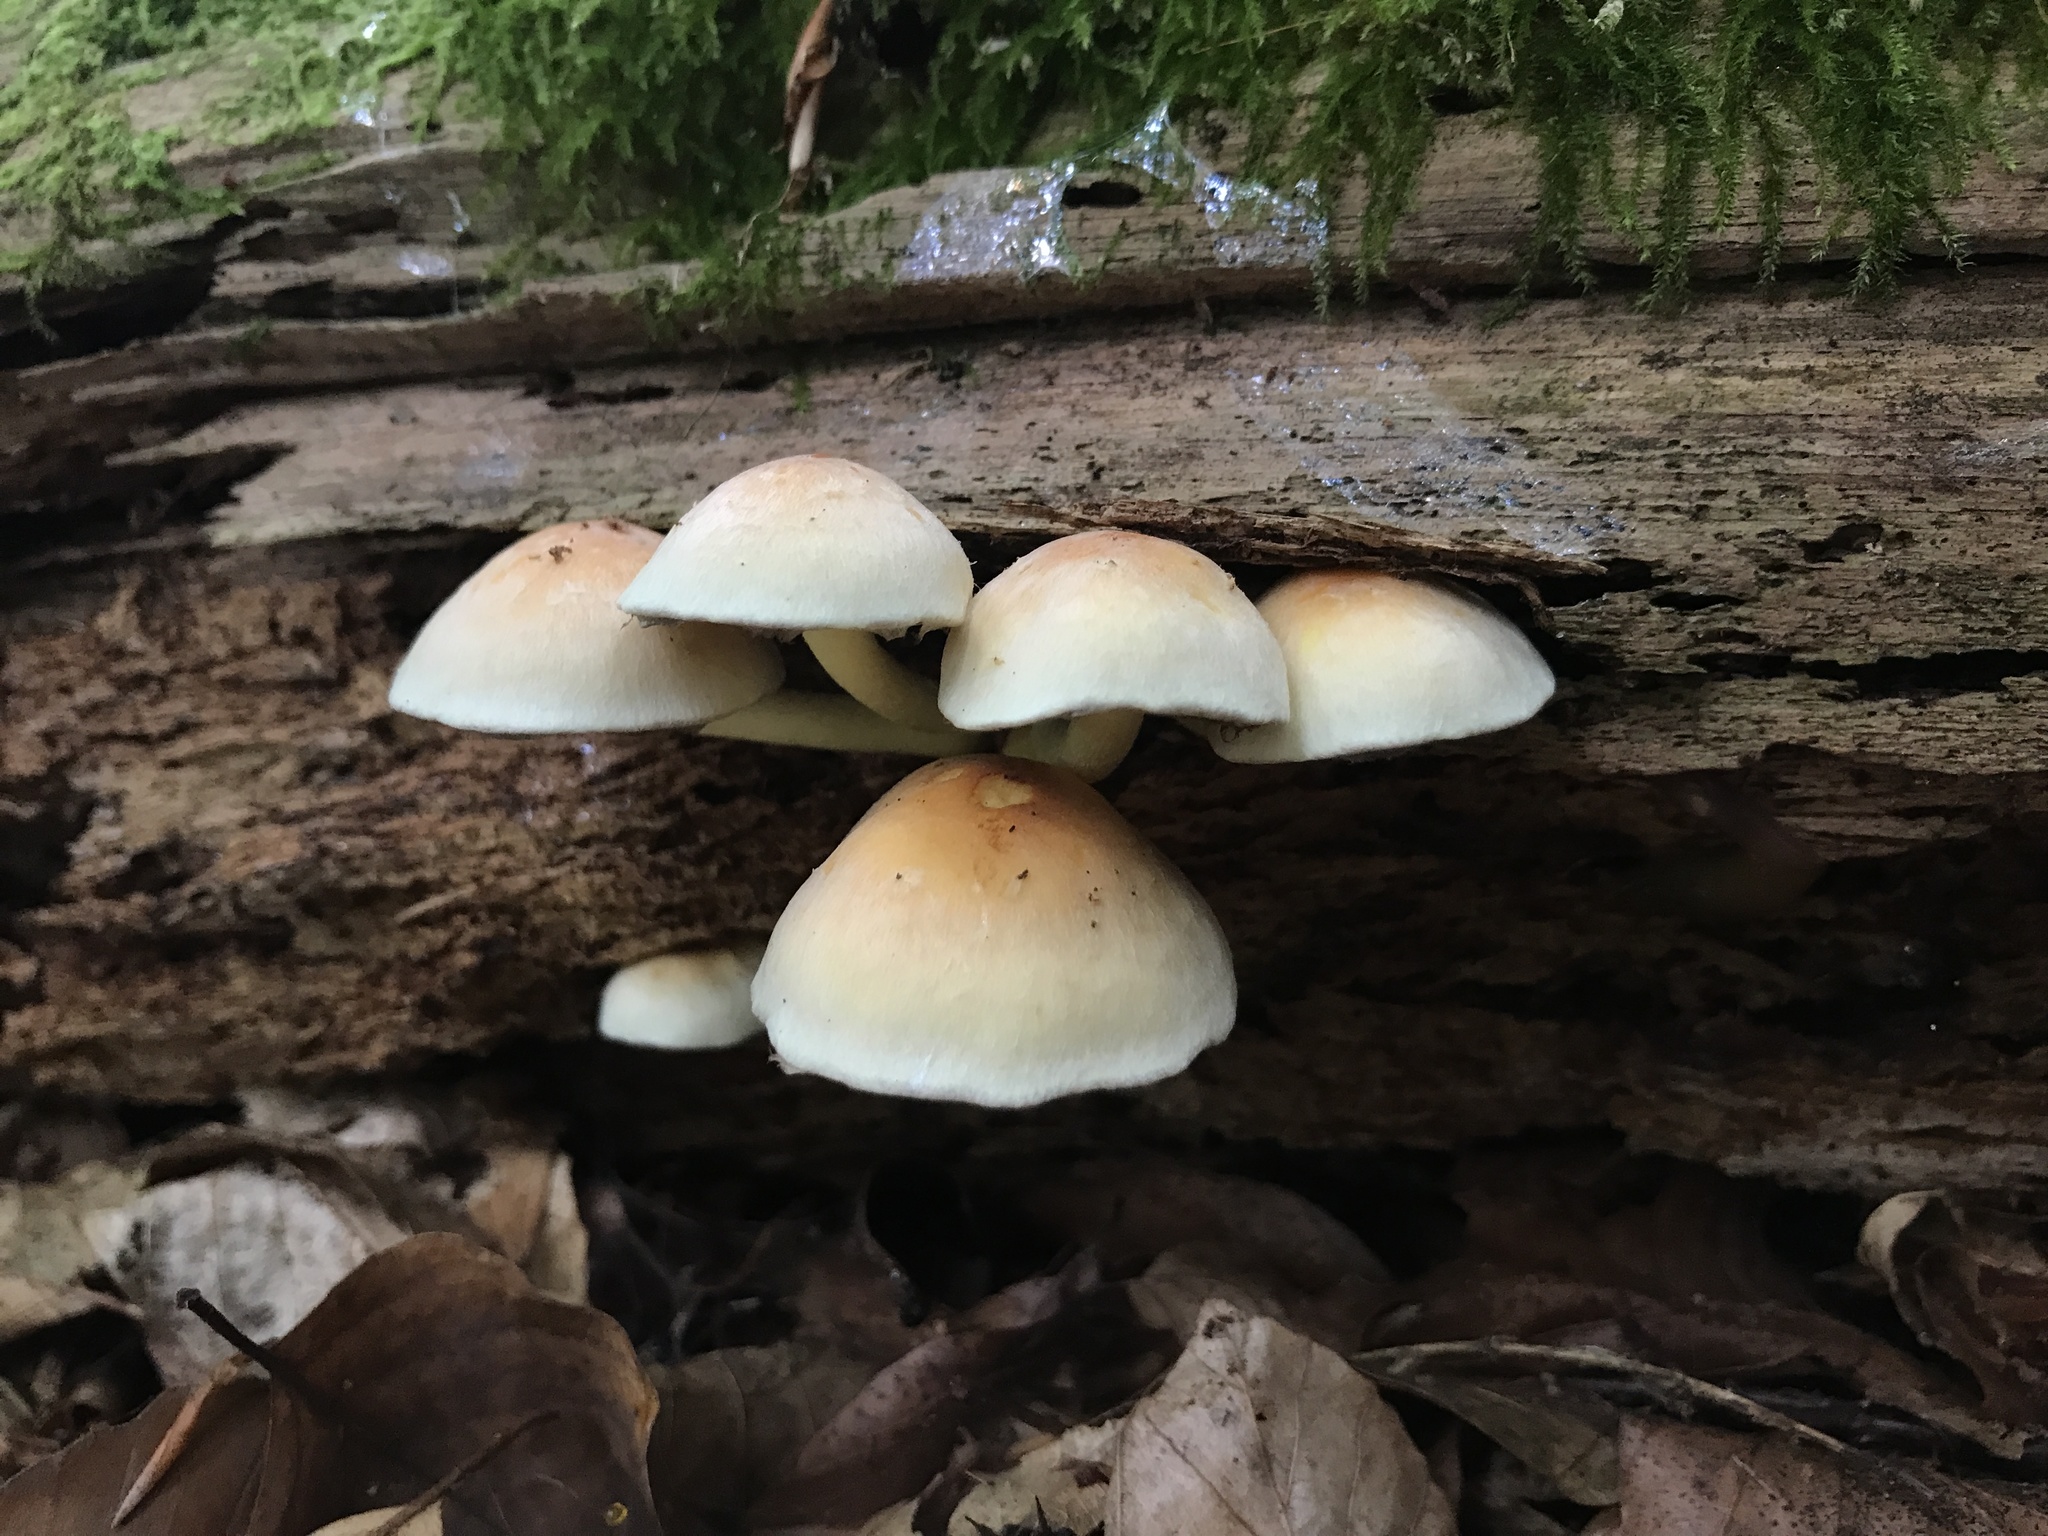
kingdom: Fungi
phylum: Basidiomycota
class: Agaricomycetes
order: Agaricales
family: Strophariaceae
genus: Hypholoma
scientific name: Hypholoma fasciculare
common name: Sulphur tuft
